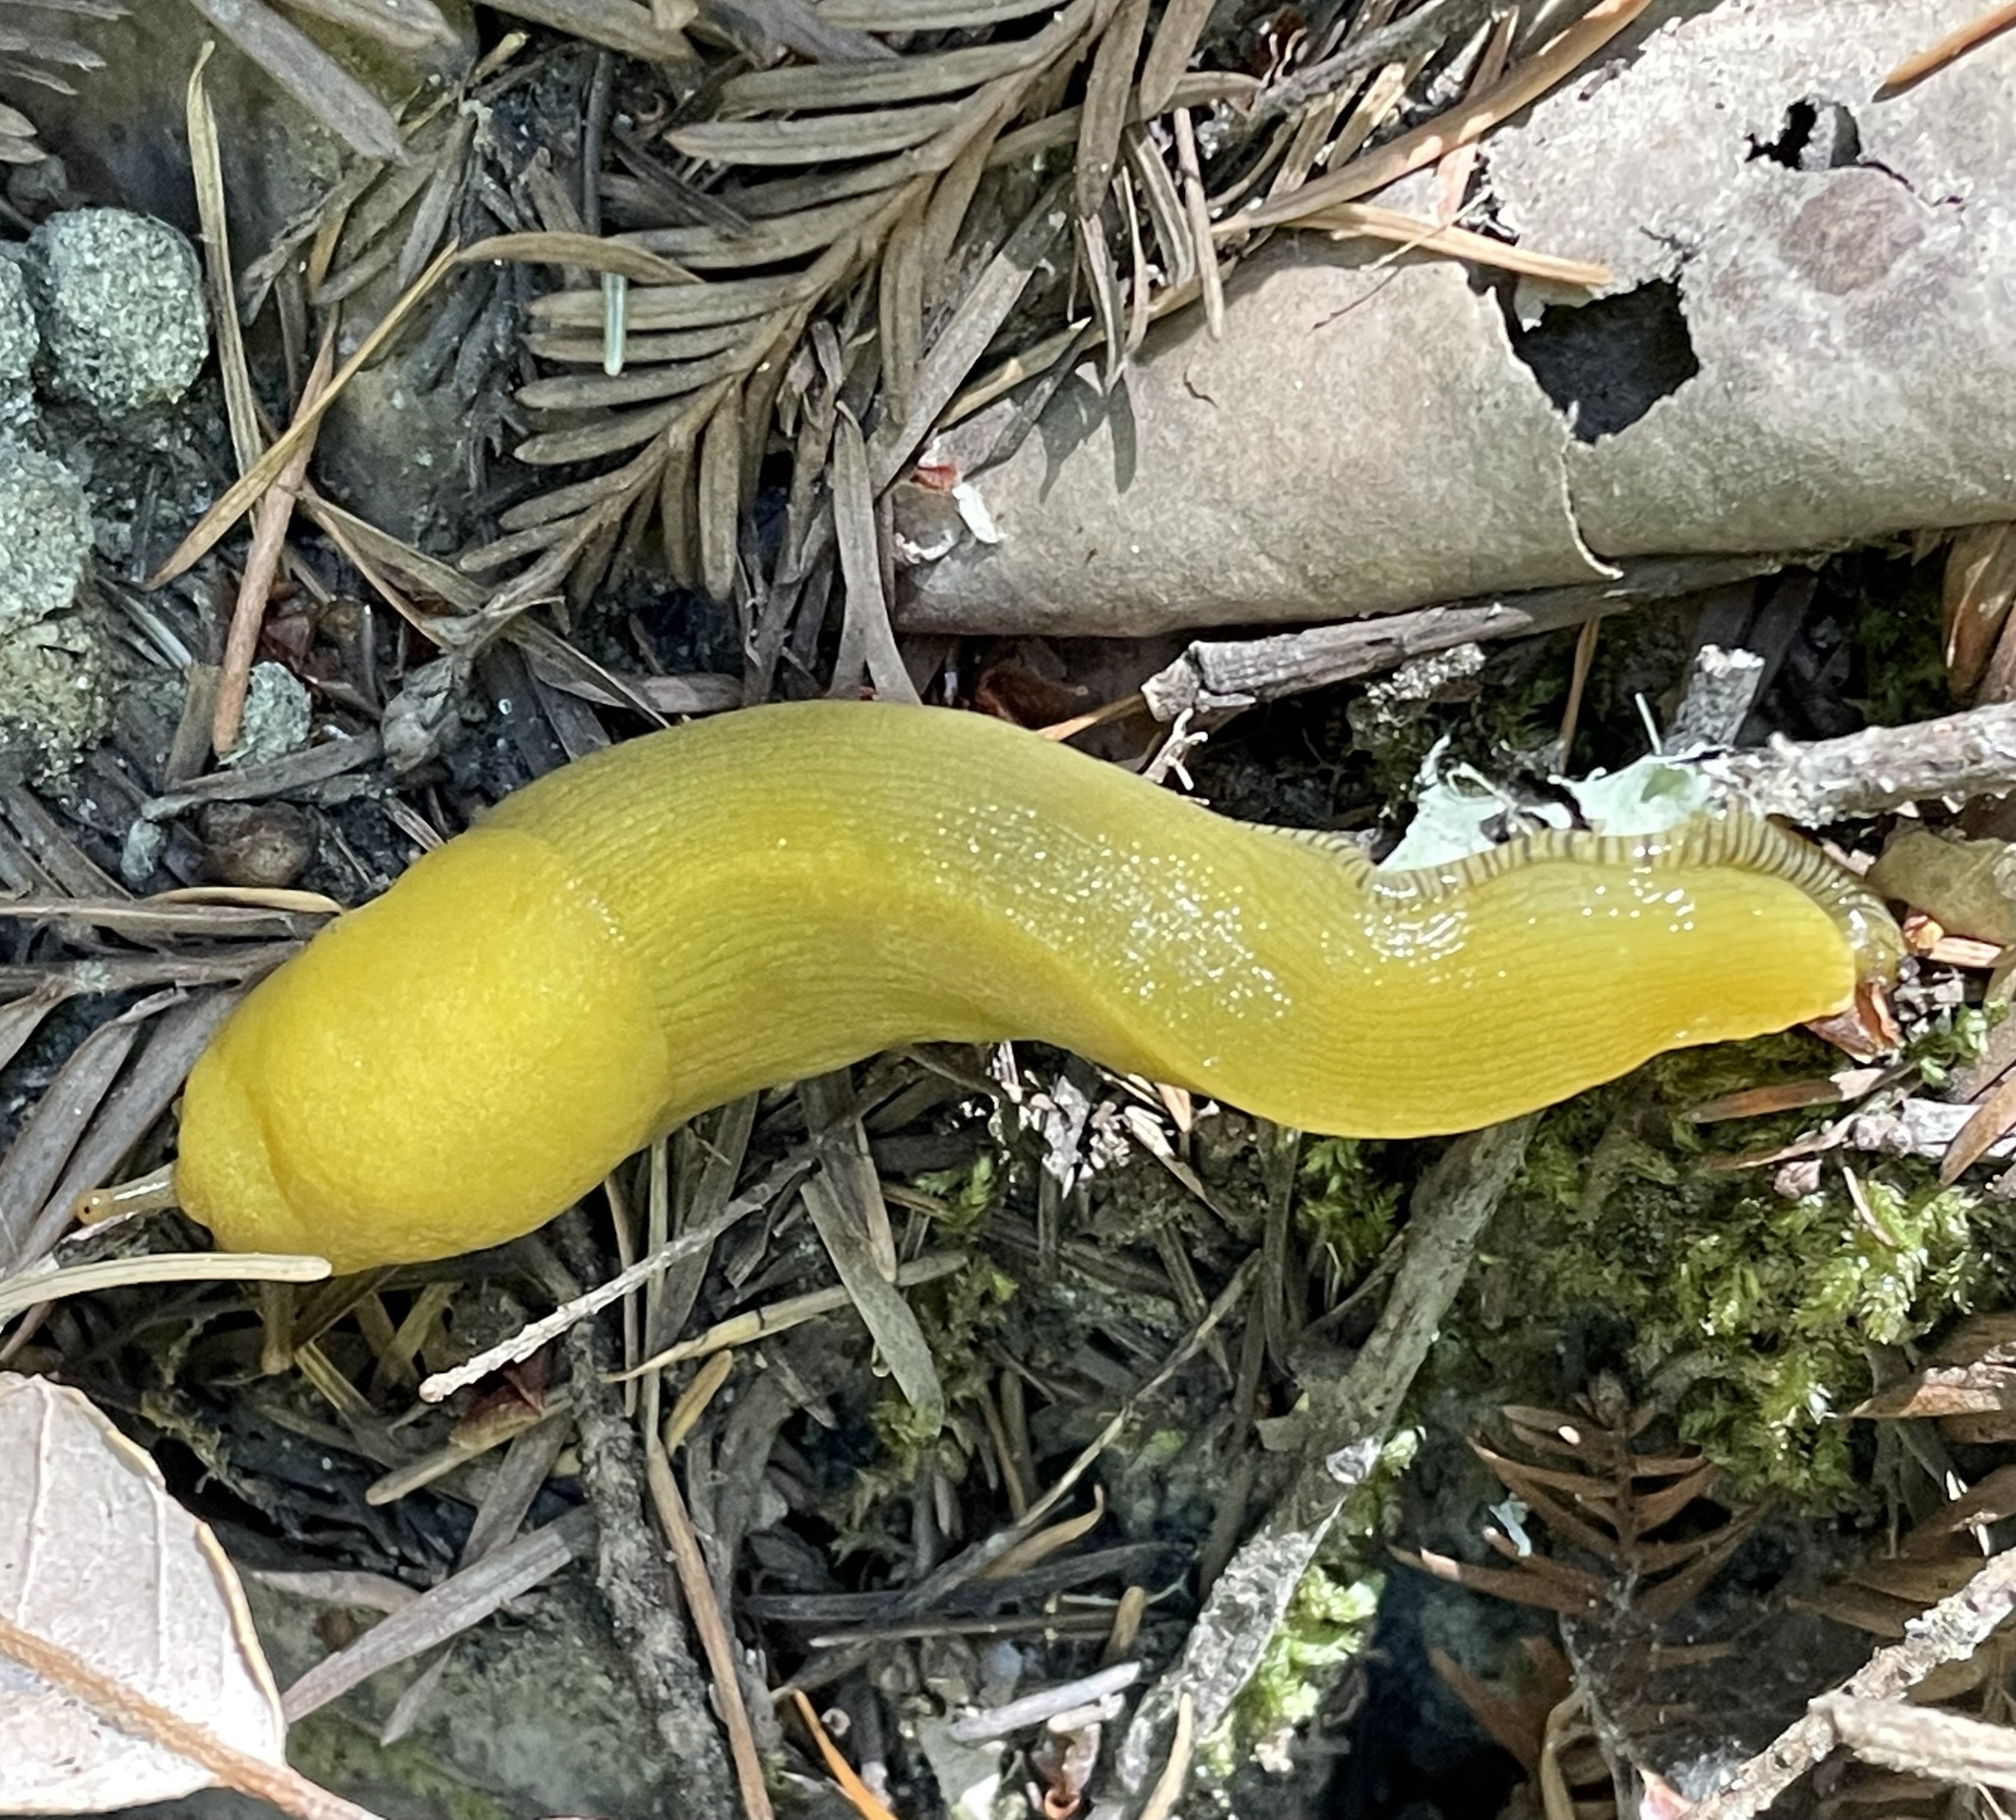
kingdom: Animalia
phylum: Mollusca
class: Gastropoda
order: Stylommatophora
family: Ariolimacidae
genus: Ariolimax
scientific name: Ariolimax dolichophallus
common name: Slender banana slug
